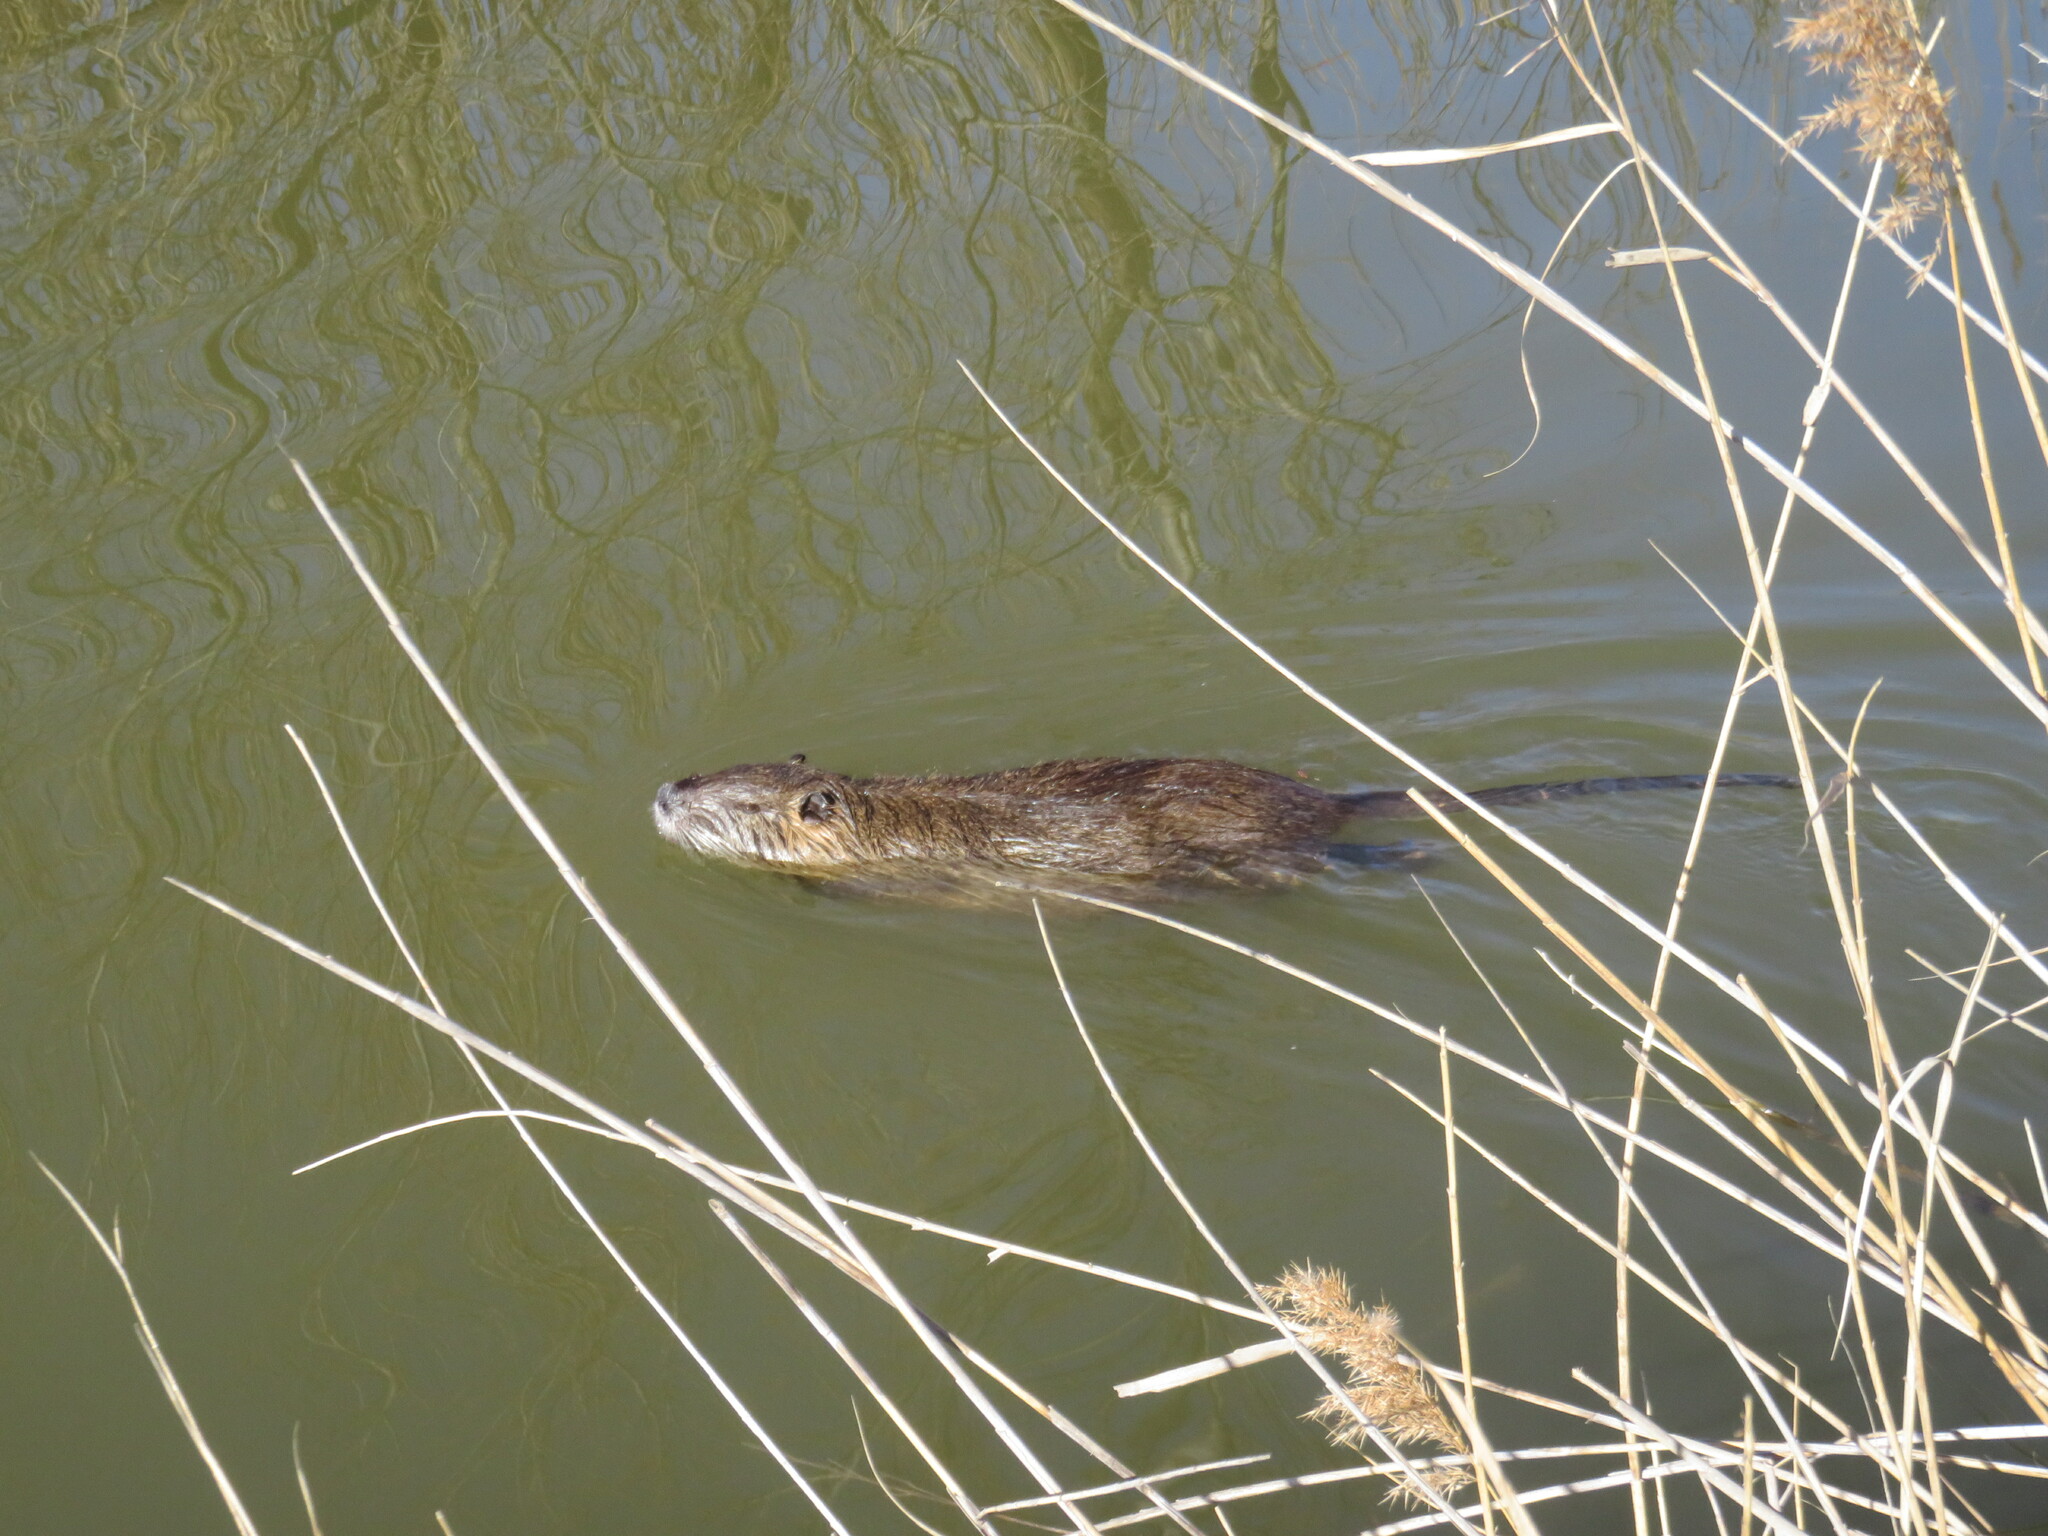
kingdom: Animalia
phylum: Chordata
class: Mammalia
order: Rodentia
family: Myocastoridae
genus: Myocastor
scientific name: Myocastor coypus
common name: Coypu
